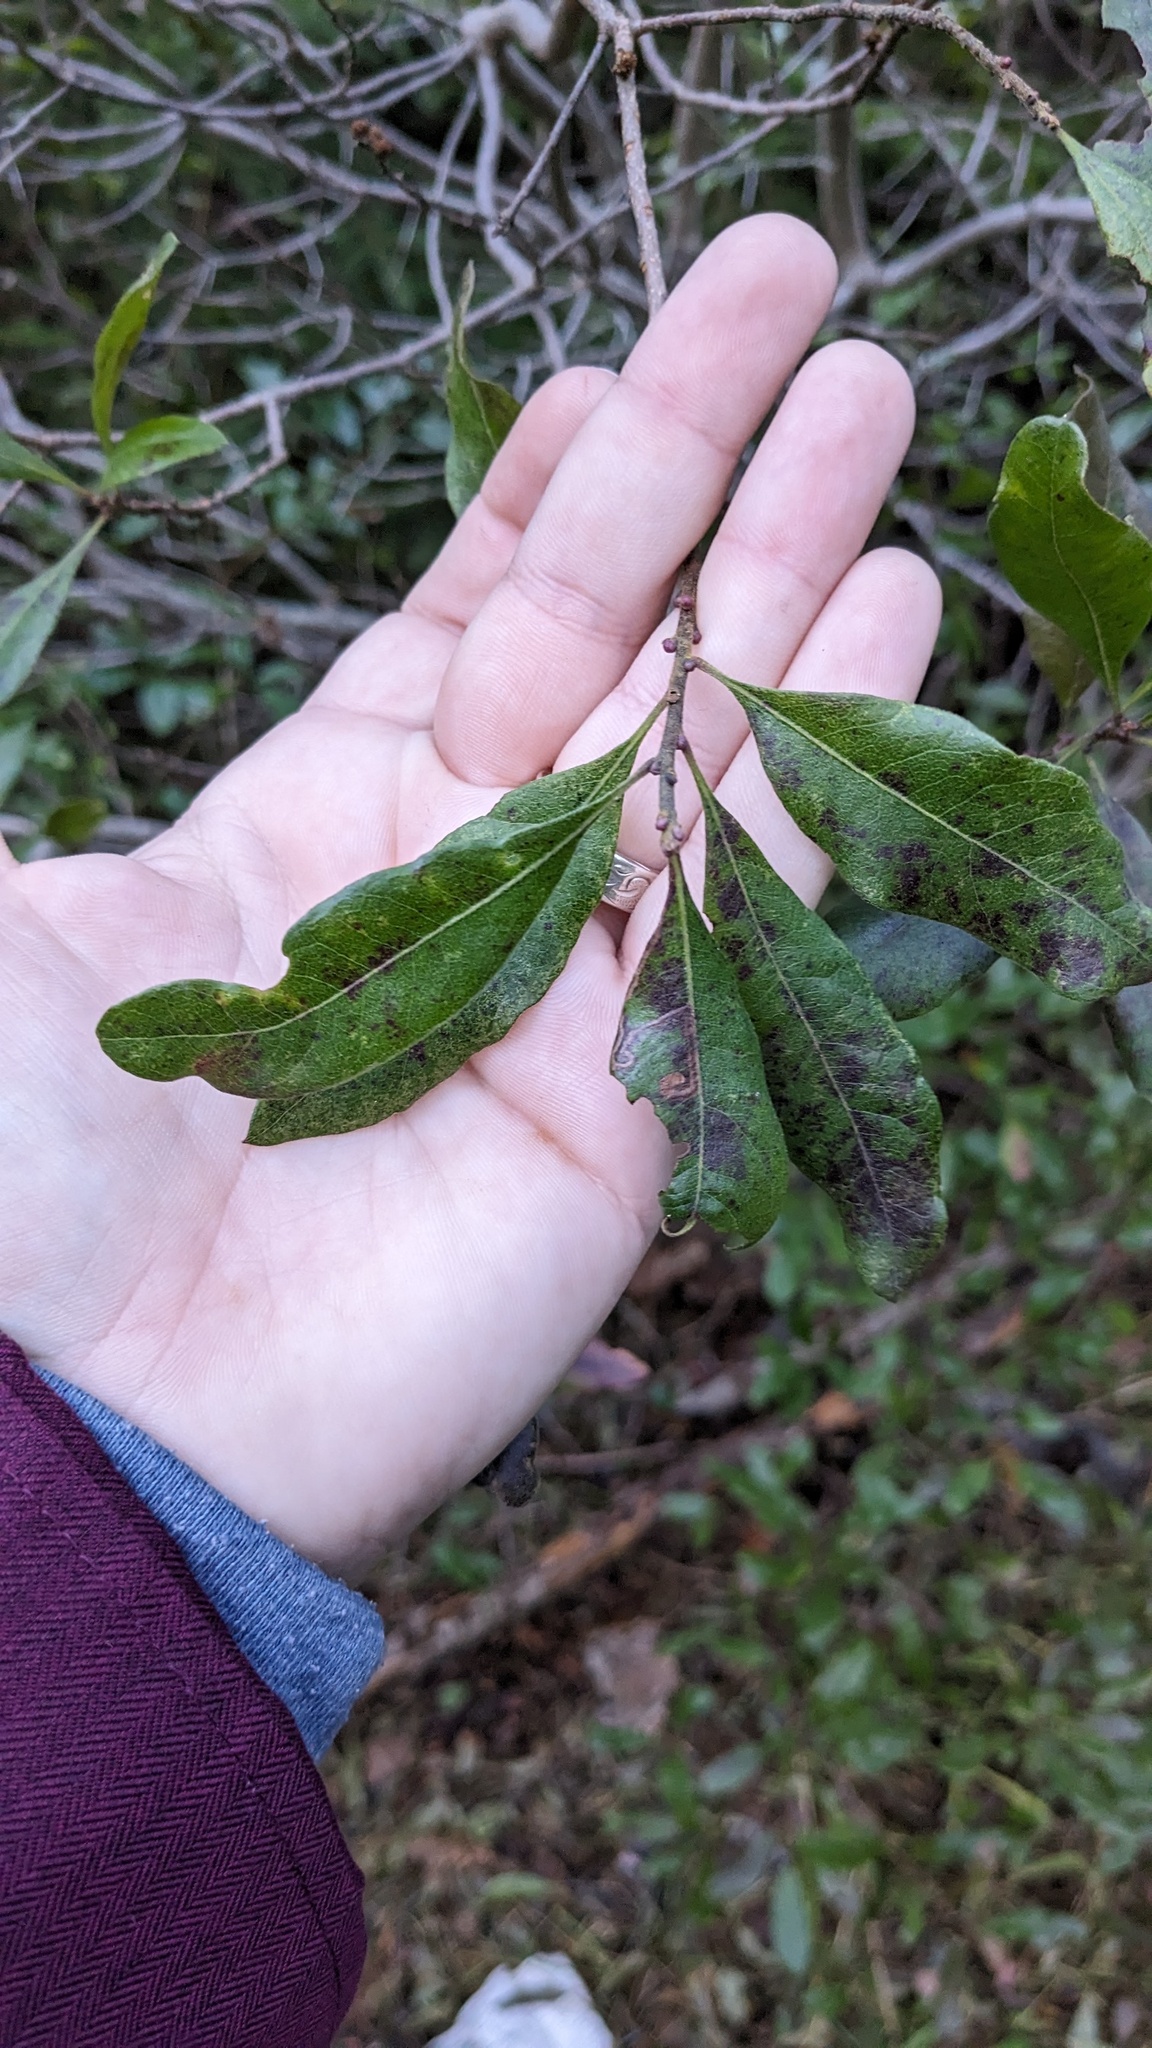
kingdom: Plantae
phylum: Tracheophyta
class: Magnoliopsida
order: Fagales
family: Myricaceae
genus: Morella
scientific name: Morella pensylvanica
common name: Northern bayberry
